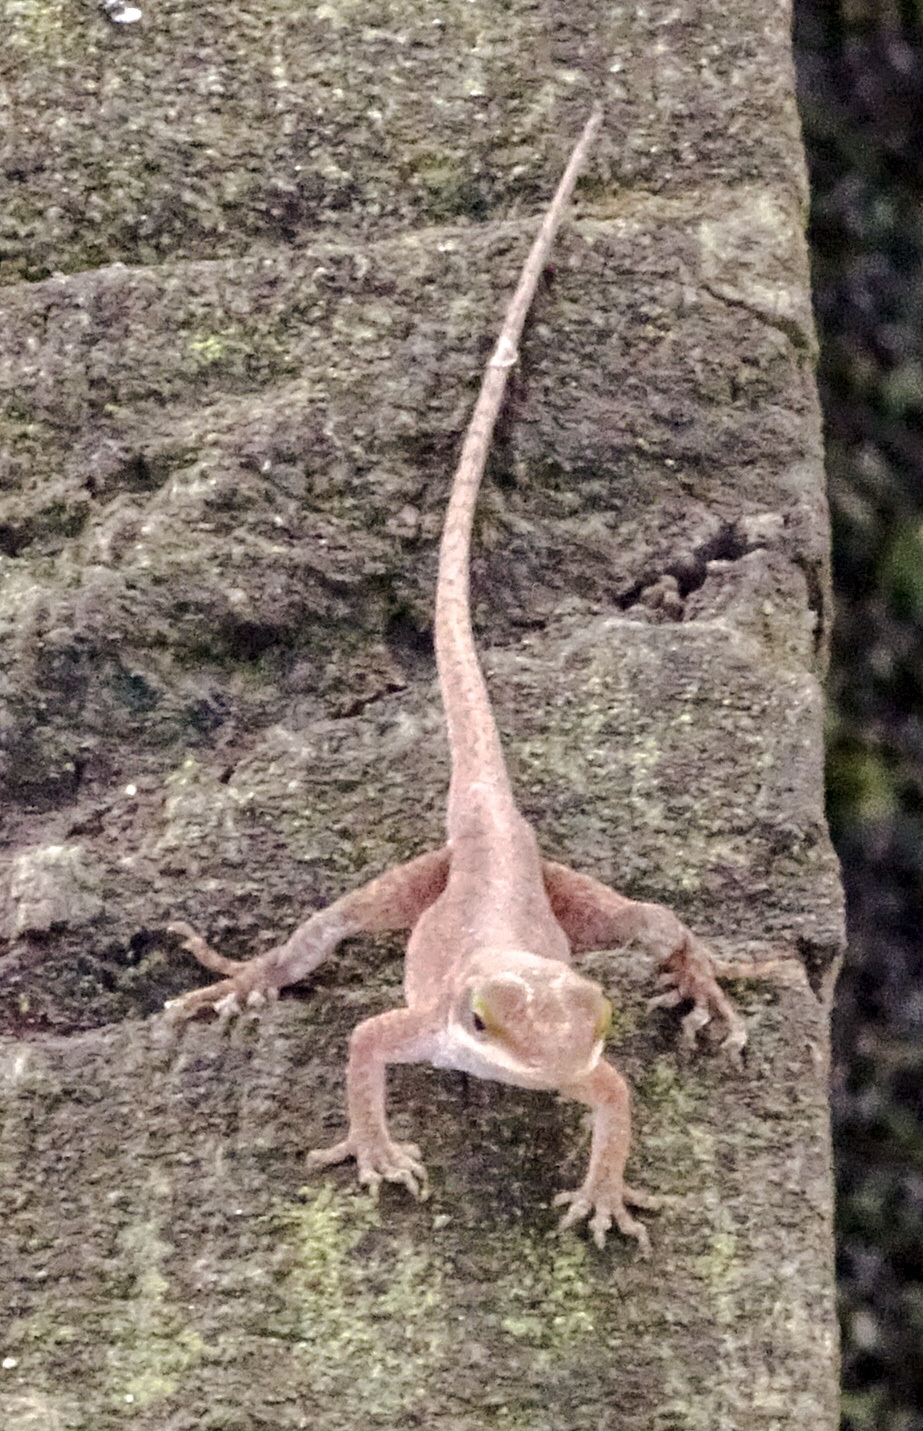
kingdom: Animalia
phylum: Chordata
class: Squamata
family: Dactyloidae
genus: Anolis
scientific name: Anolis carolinensis
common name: Green anole
